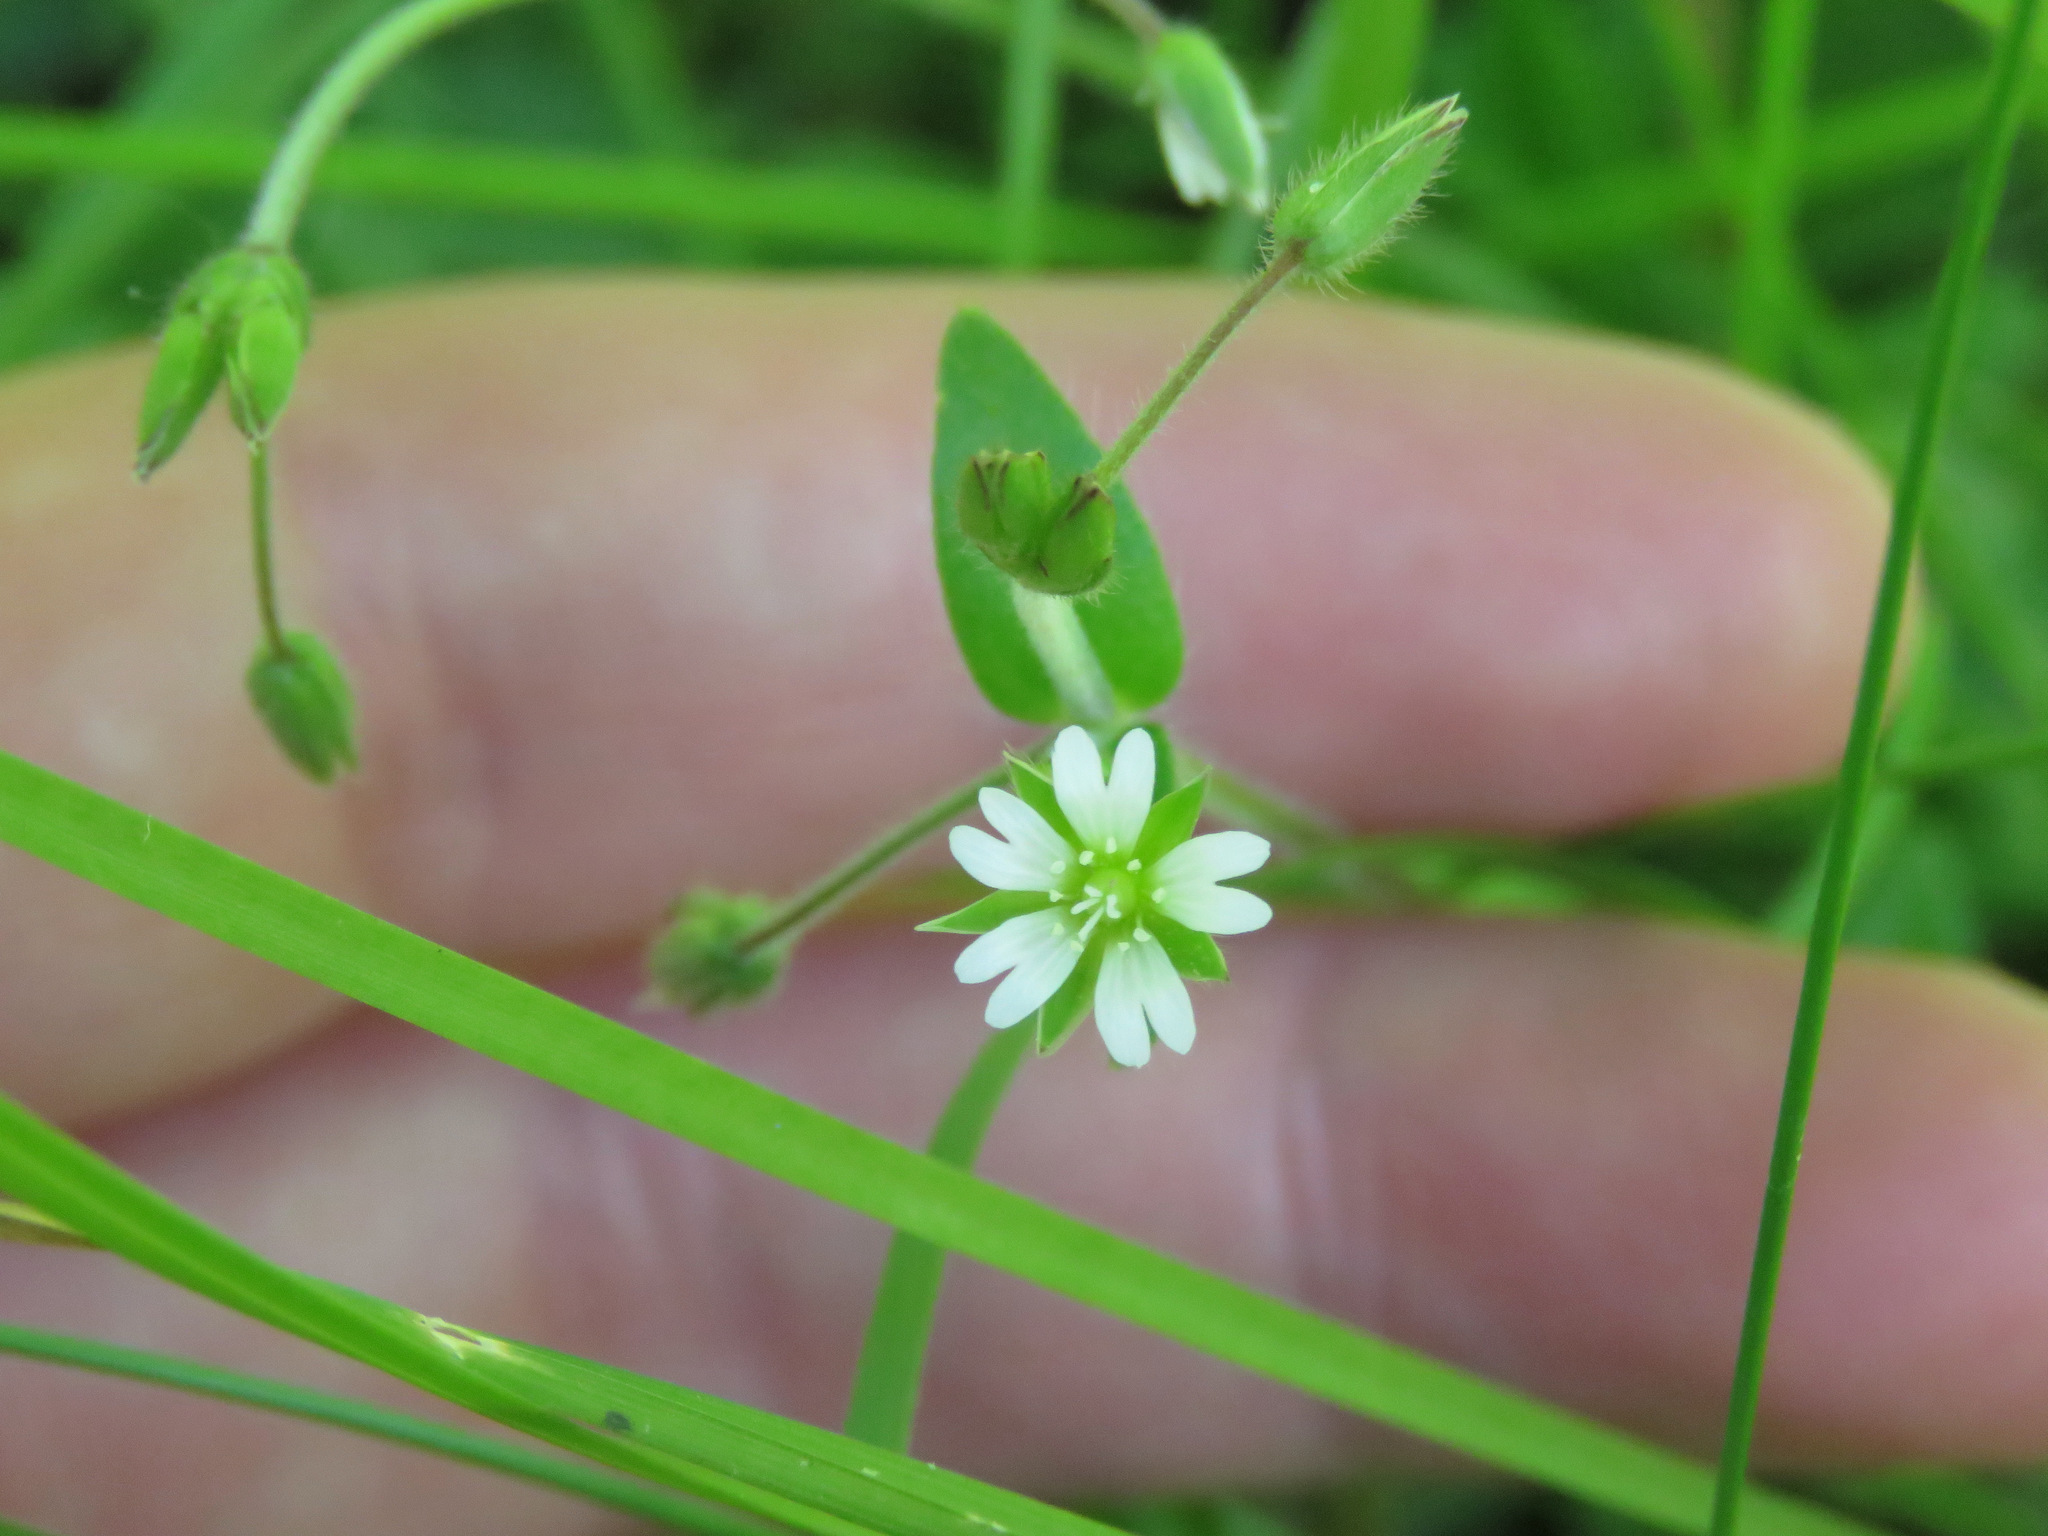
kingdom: Plantae
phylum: Tracheophyta
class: Magnoliopsida
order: Caryophyllales
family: Caryophyllaceae
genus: Cerastium
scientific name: Cerastium fontanum
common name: Common mouse-ear
